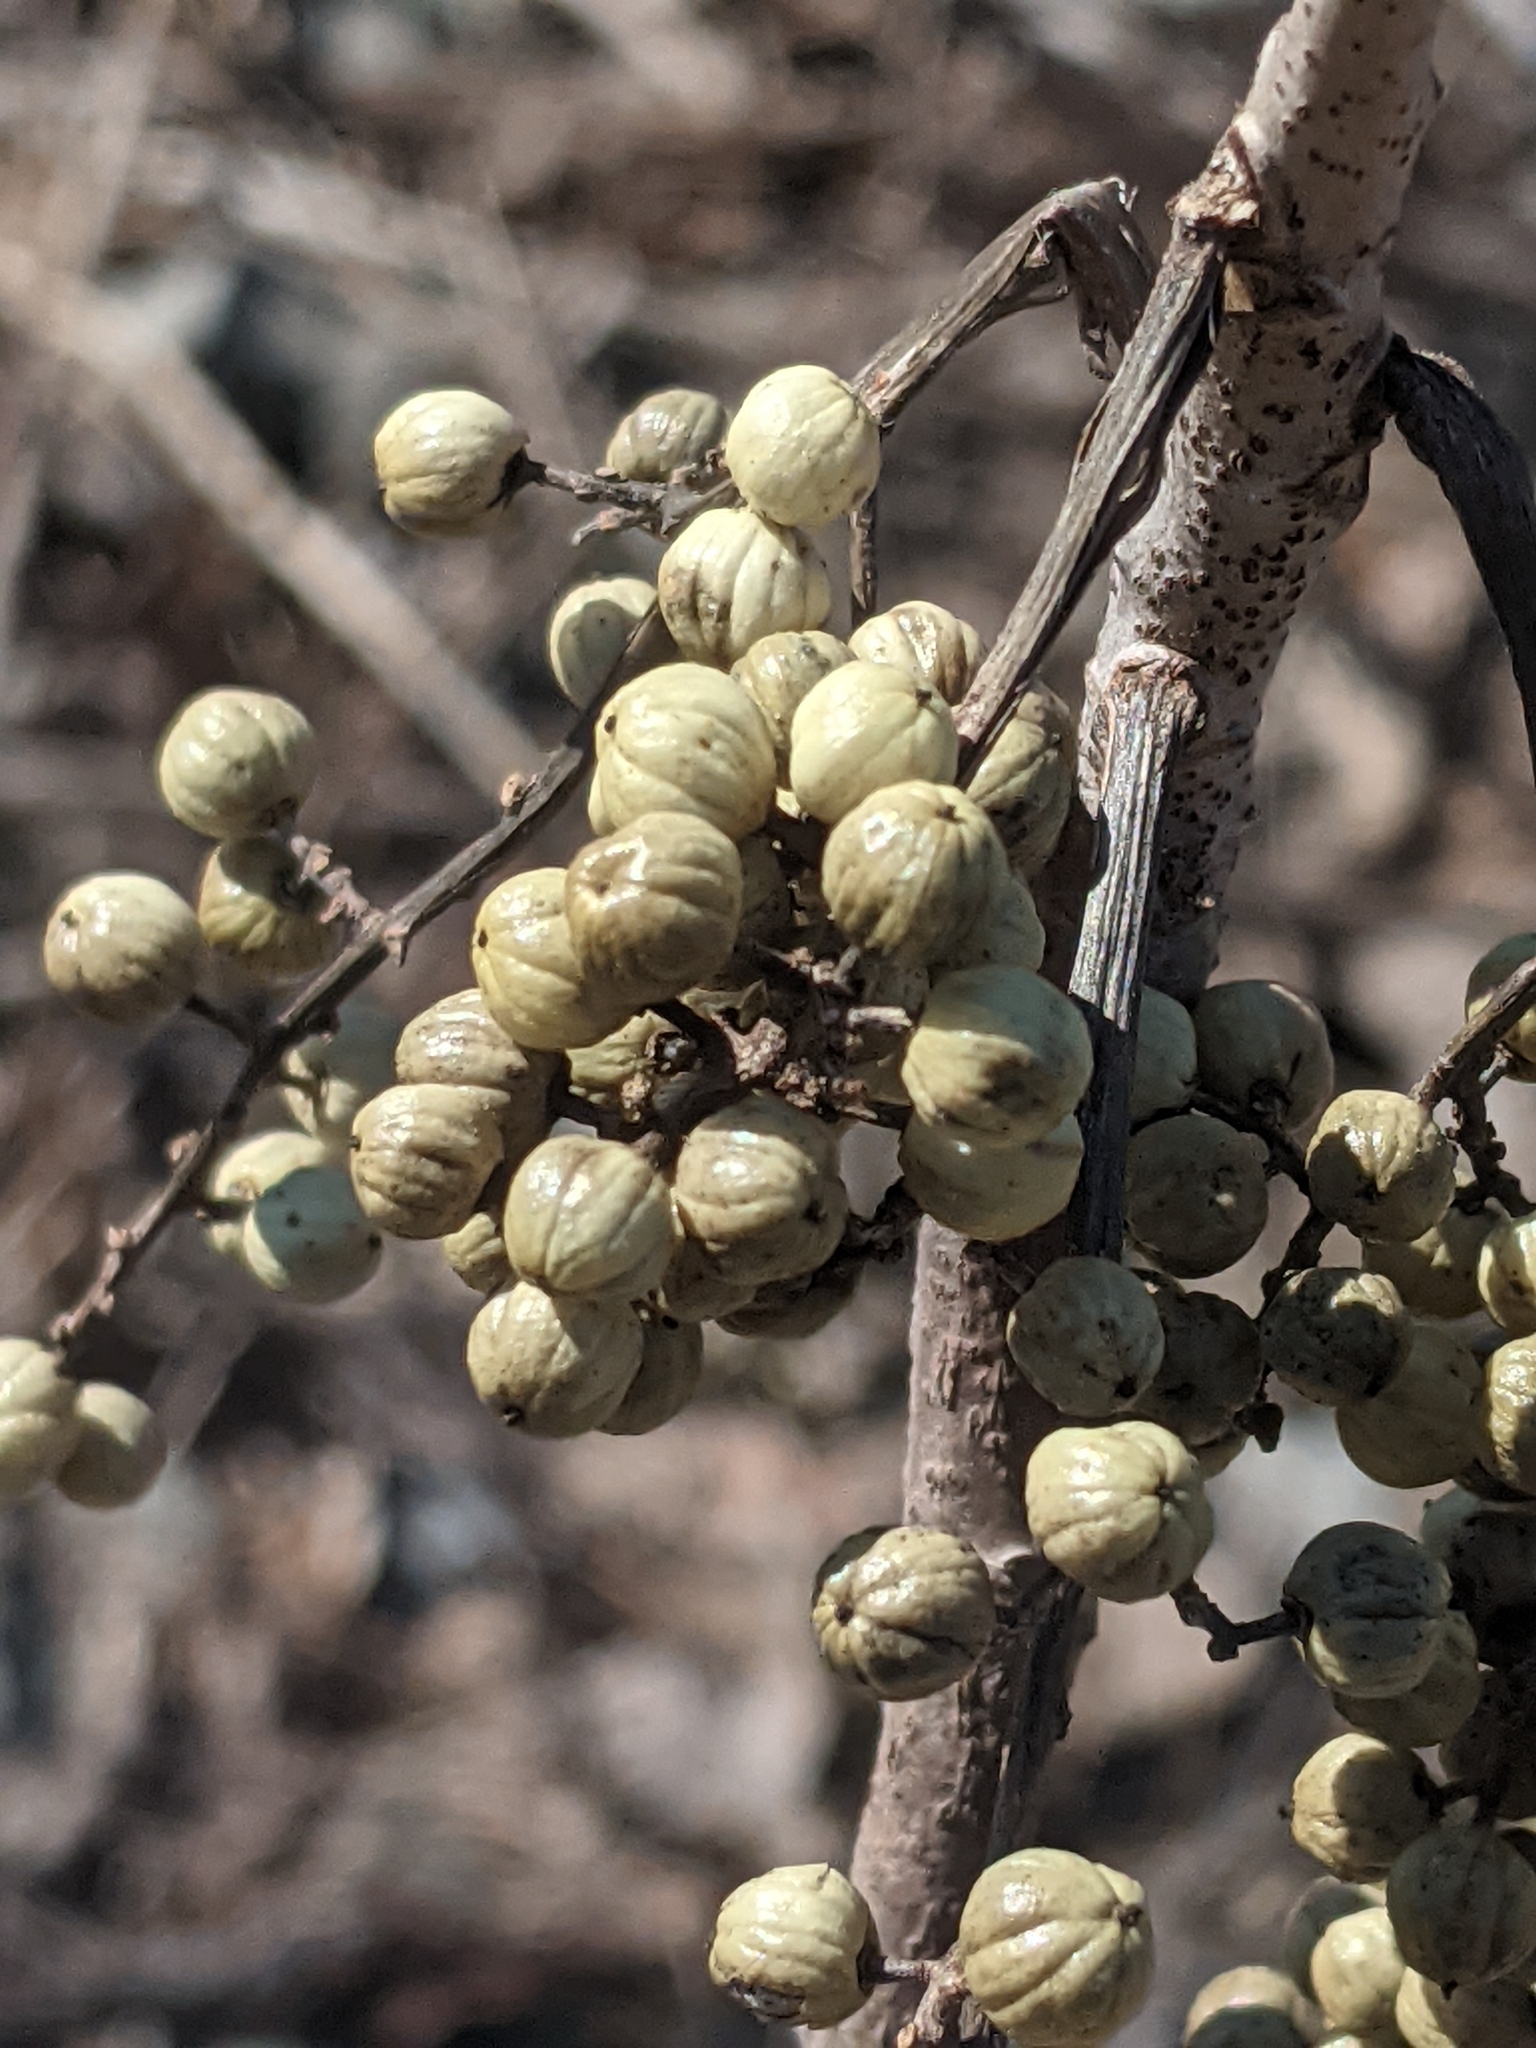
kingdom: Plantae
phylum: Tracheophyta
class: Magnoliopsida
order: Sapindales
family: Anacardiaceae
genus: Toxicodendron
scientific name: Toxicodendron rydbergii
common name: Rydberg's poison-ivy
